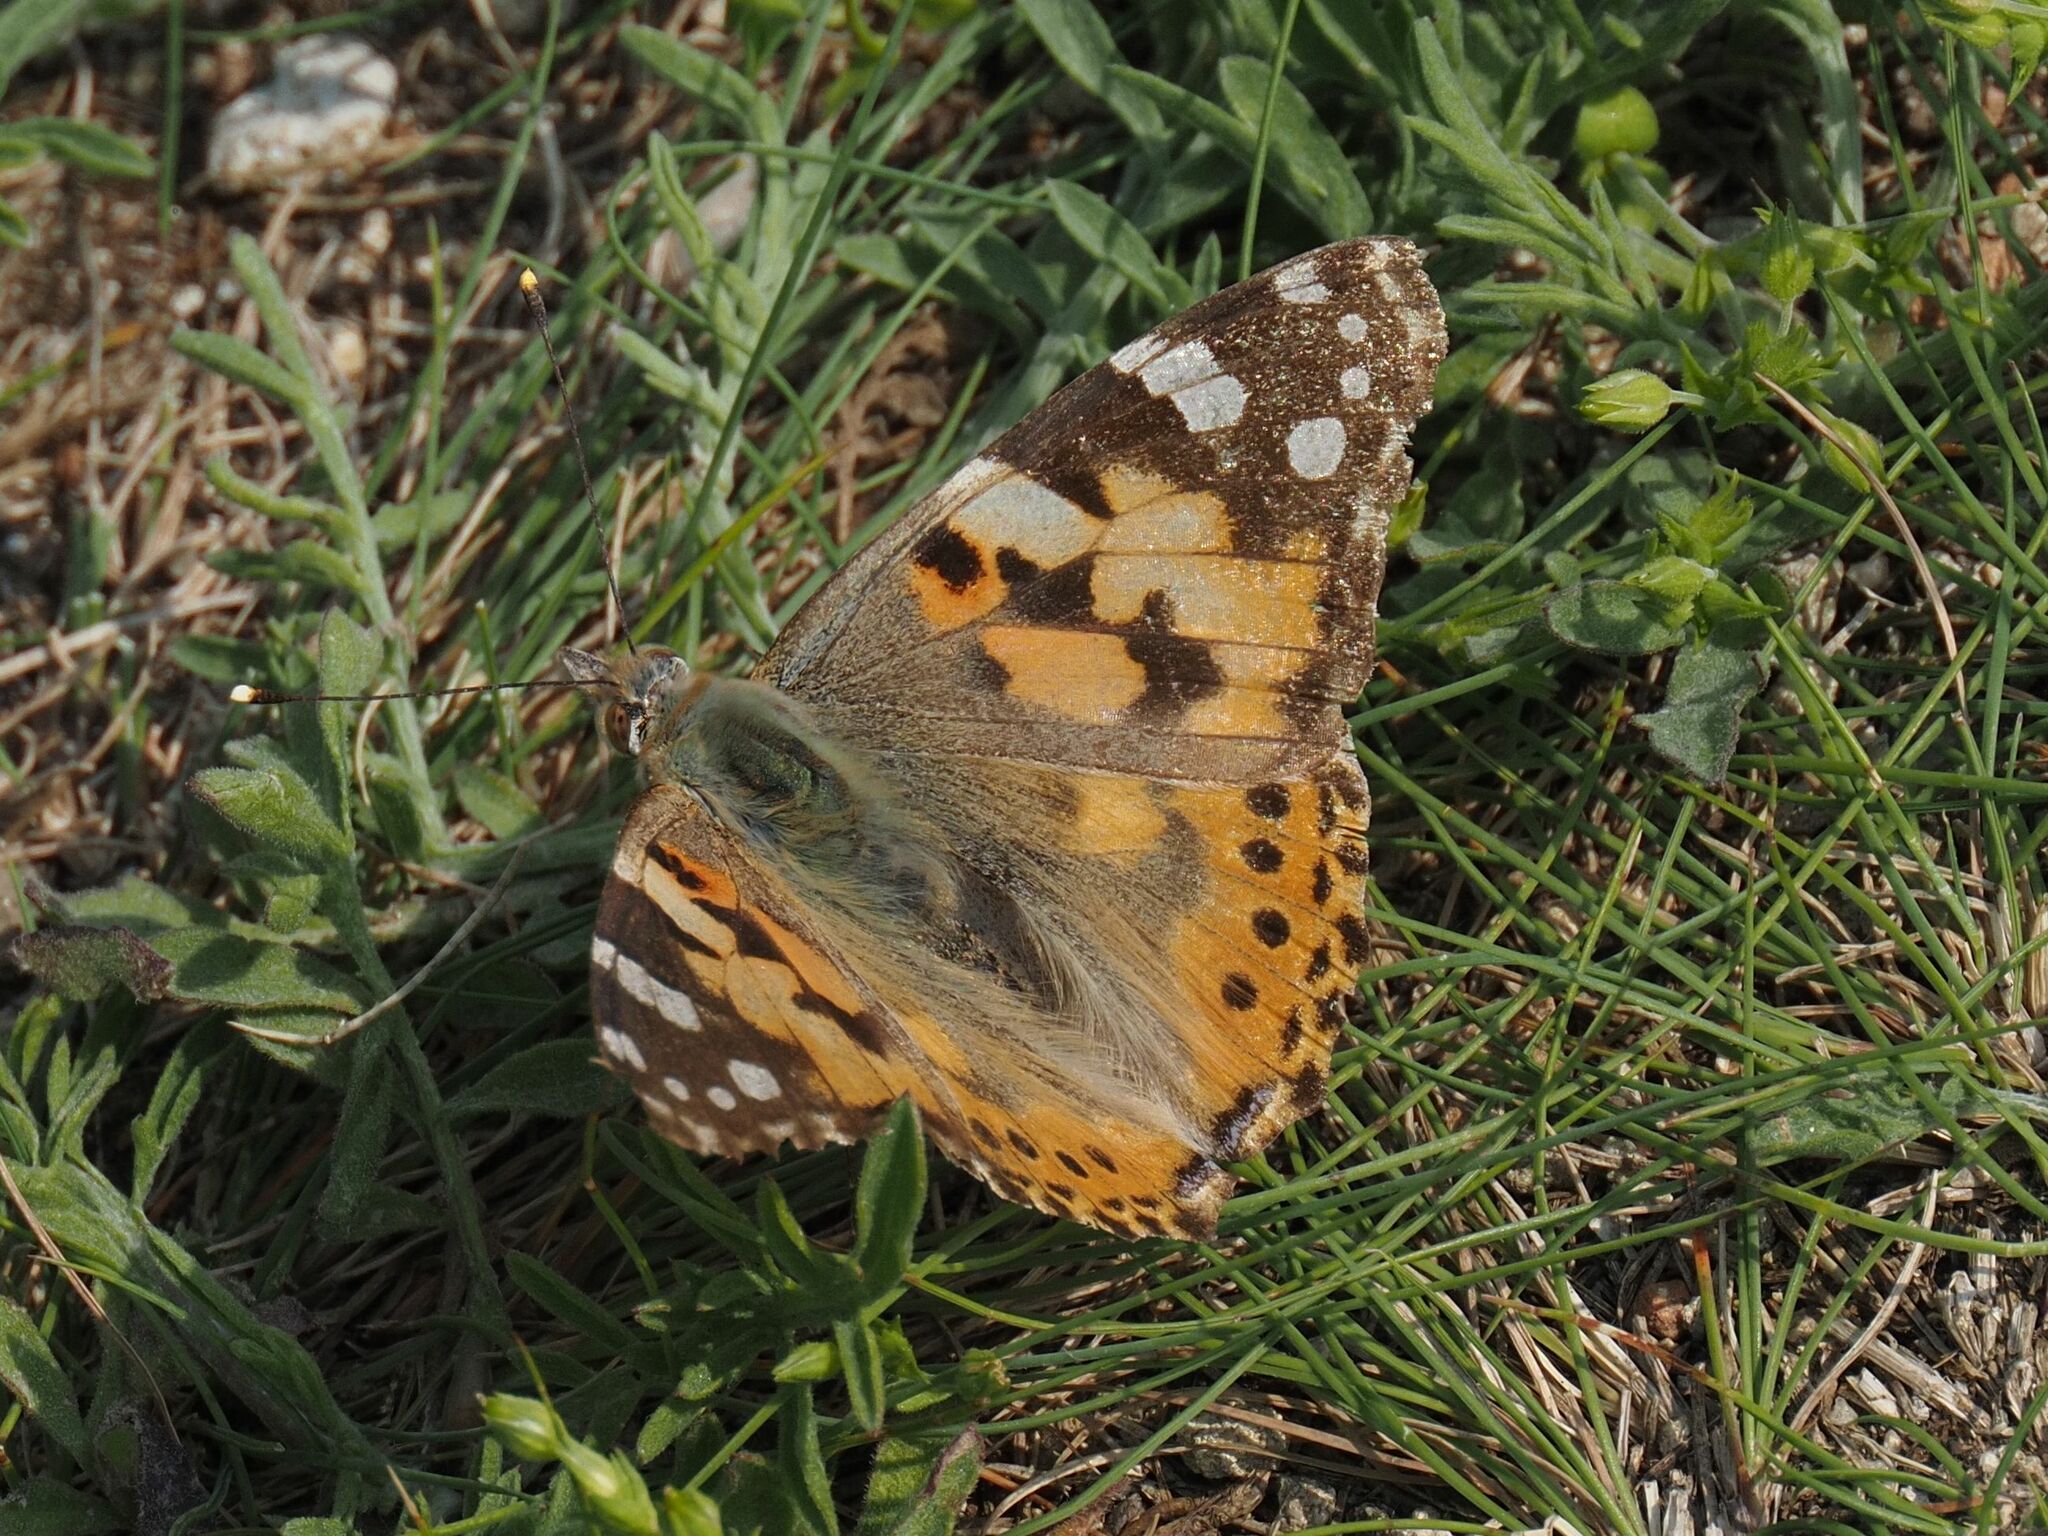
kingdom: Animalia
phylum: Arthropoda
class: Insecta
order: Lepidoptera
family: Nymphalidae
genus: Vanessa
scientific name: Vanessa cardui
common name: Painted lady
